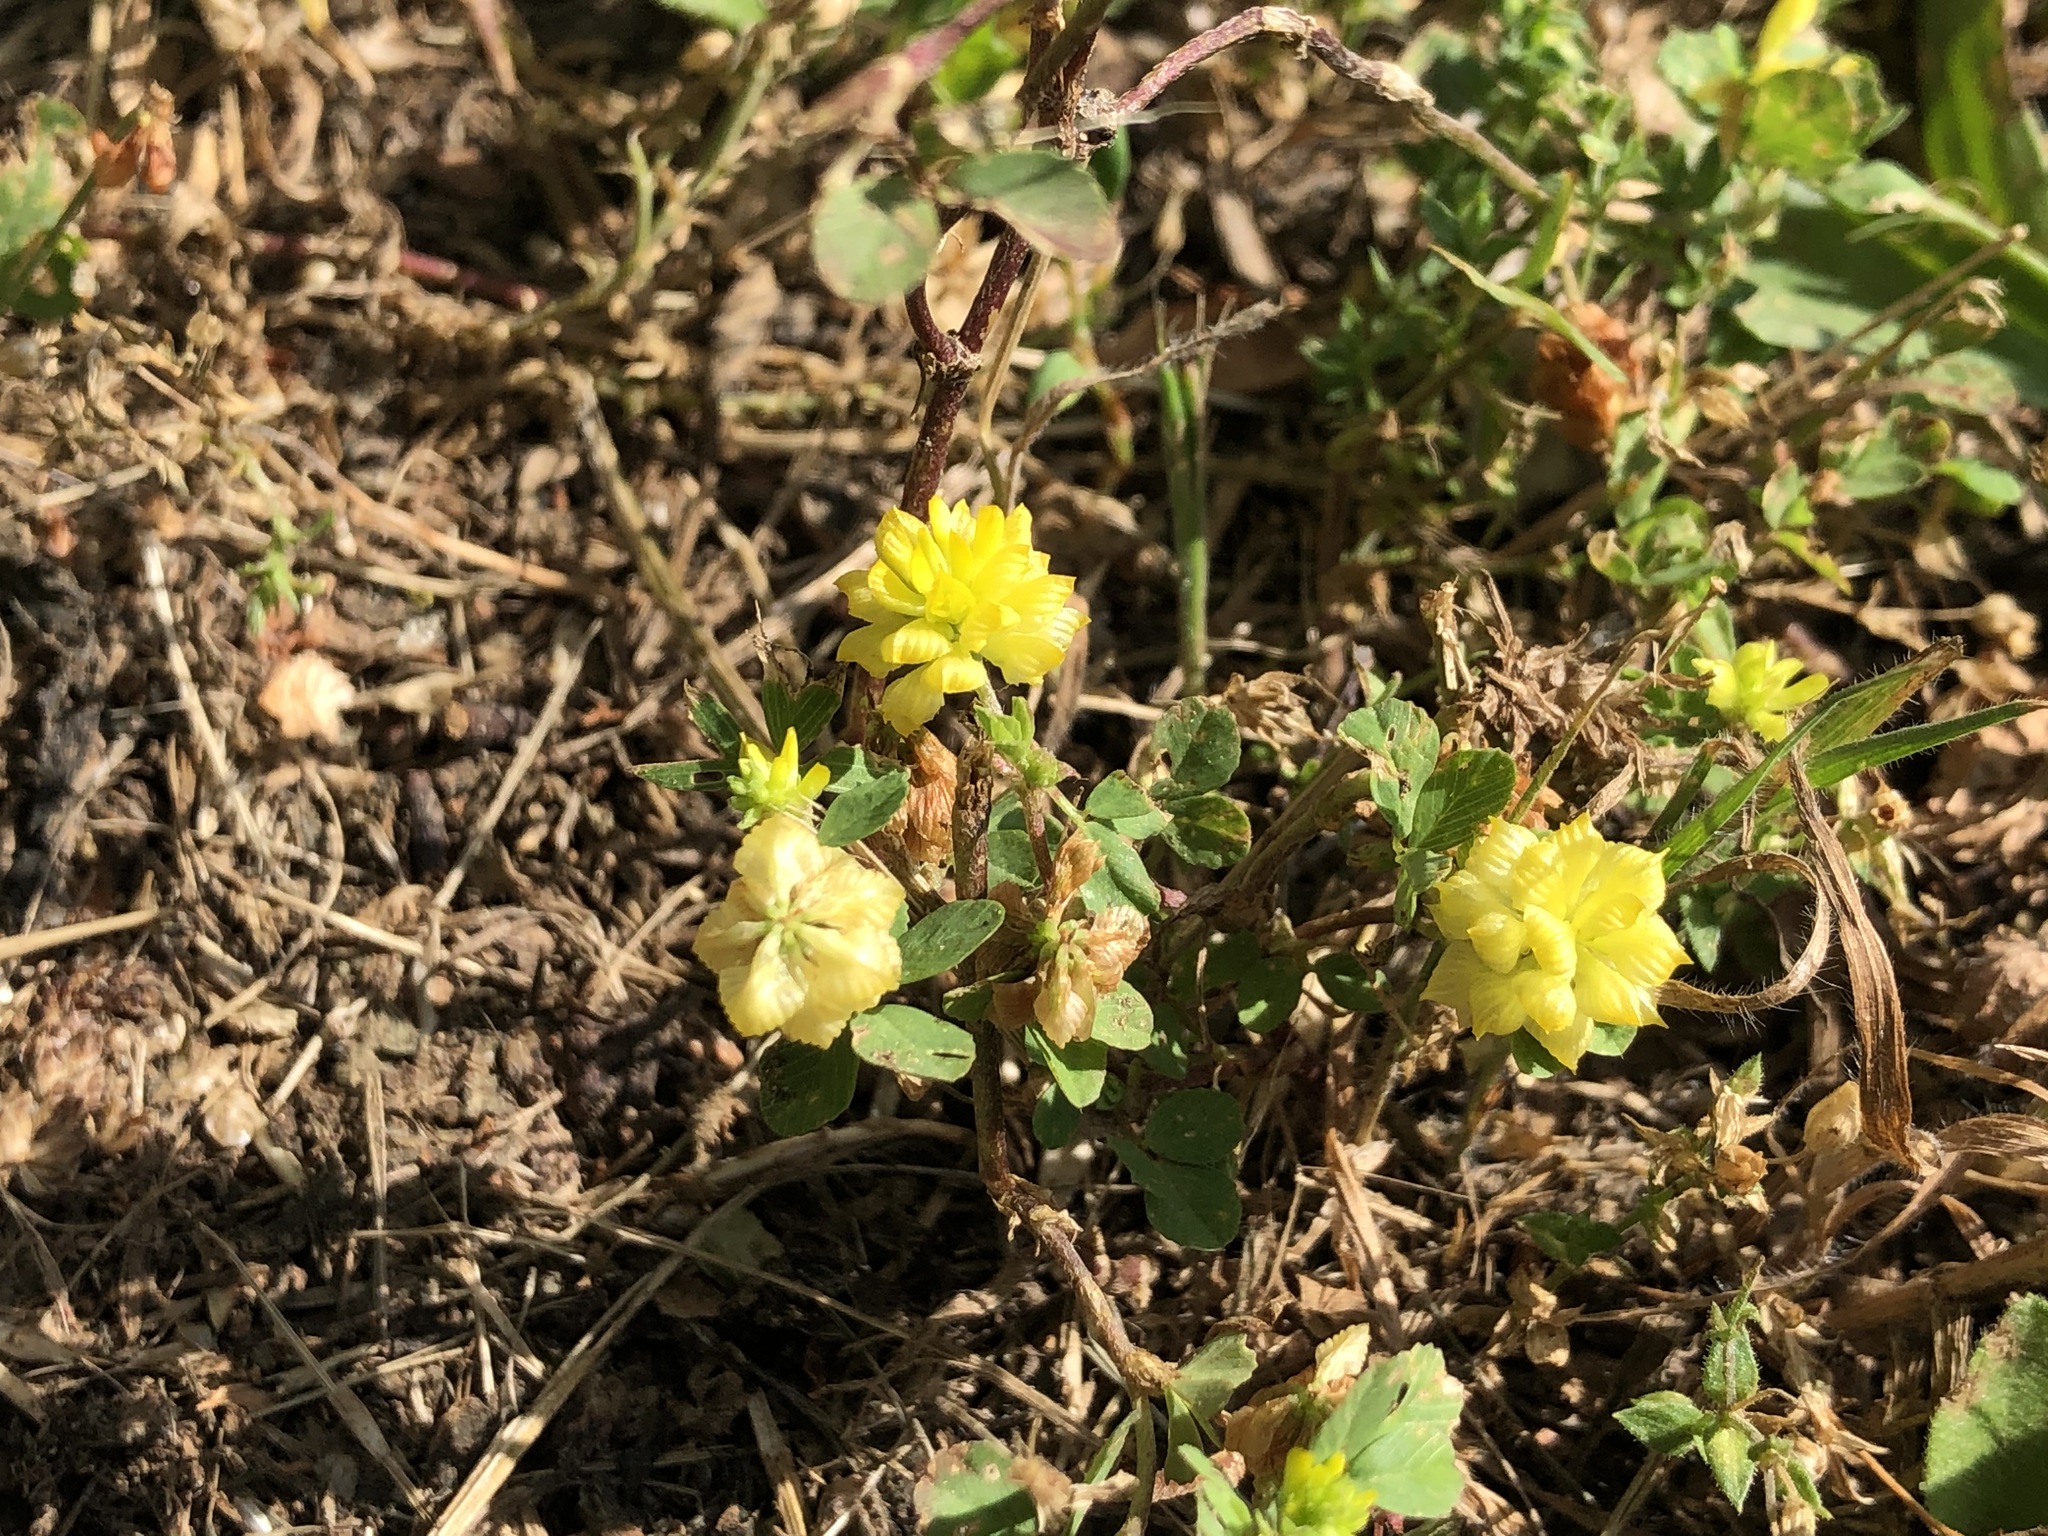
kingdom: Plantae
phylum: Tracheophyta
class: Magnoliopsida
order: Fabales
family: Fabaceae
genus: Trifolium
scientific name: Trifolium campestre
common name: Field clover
